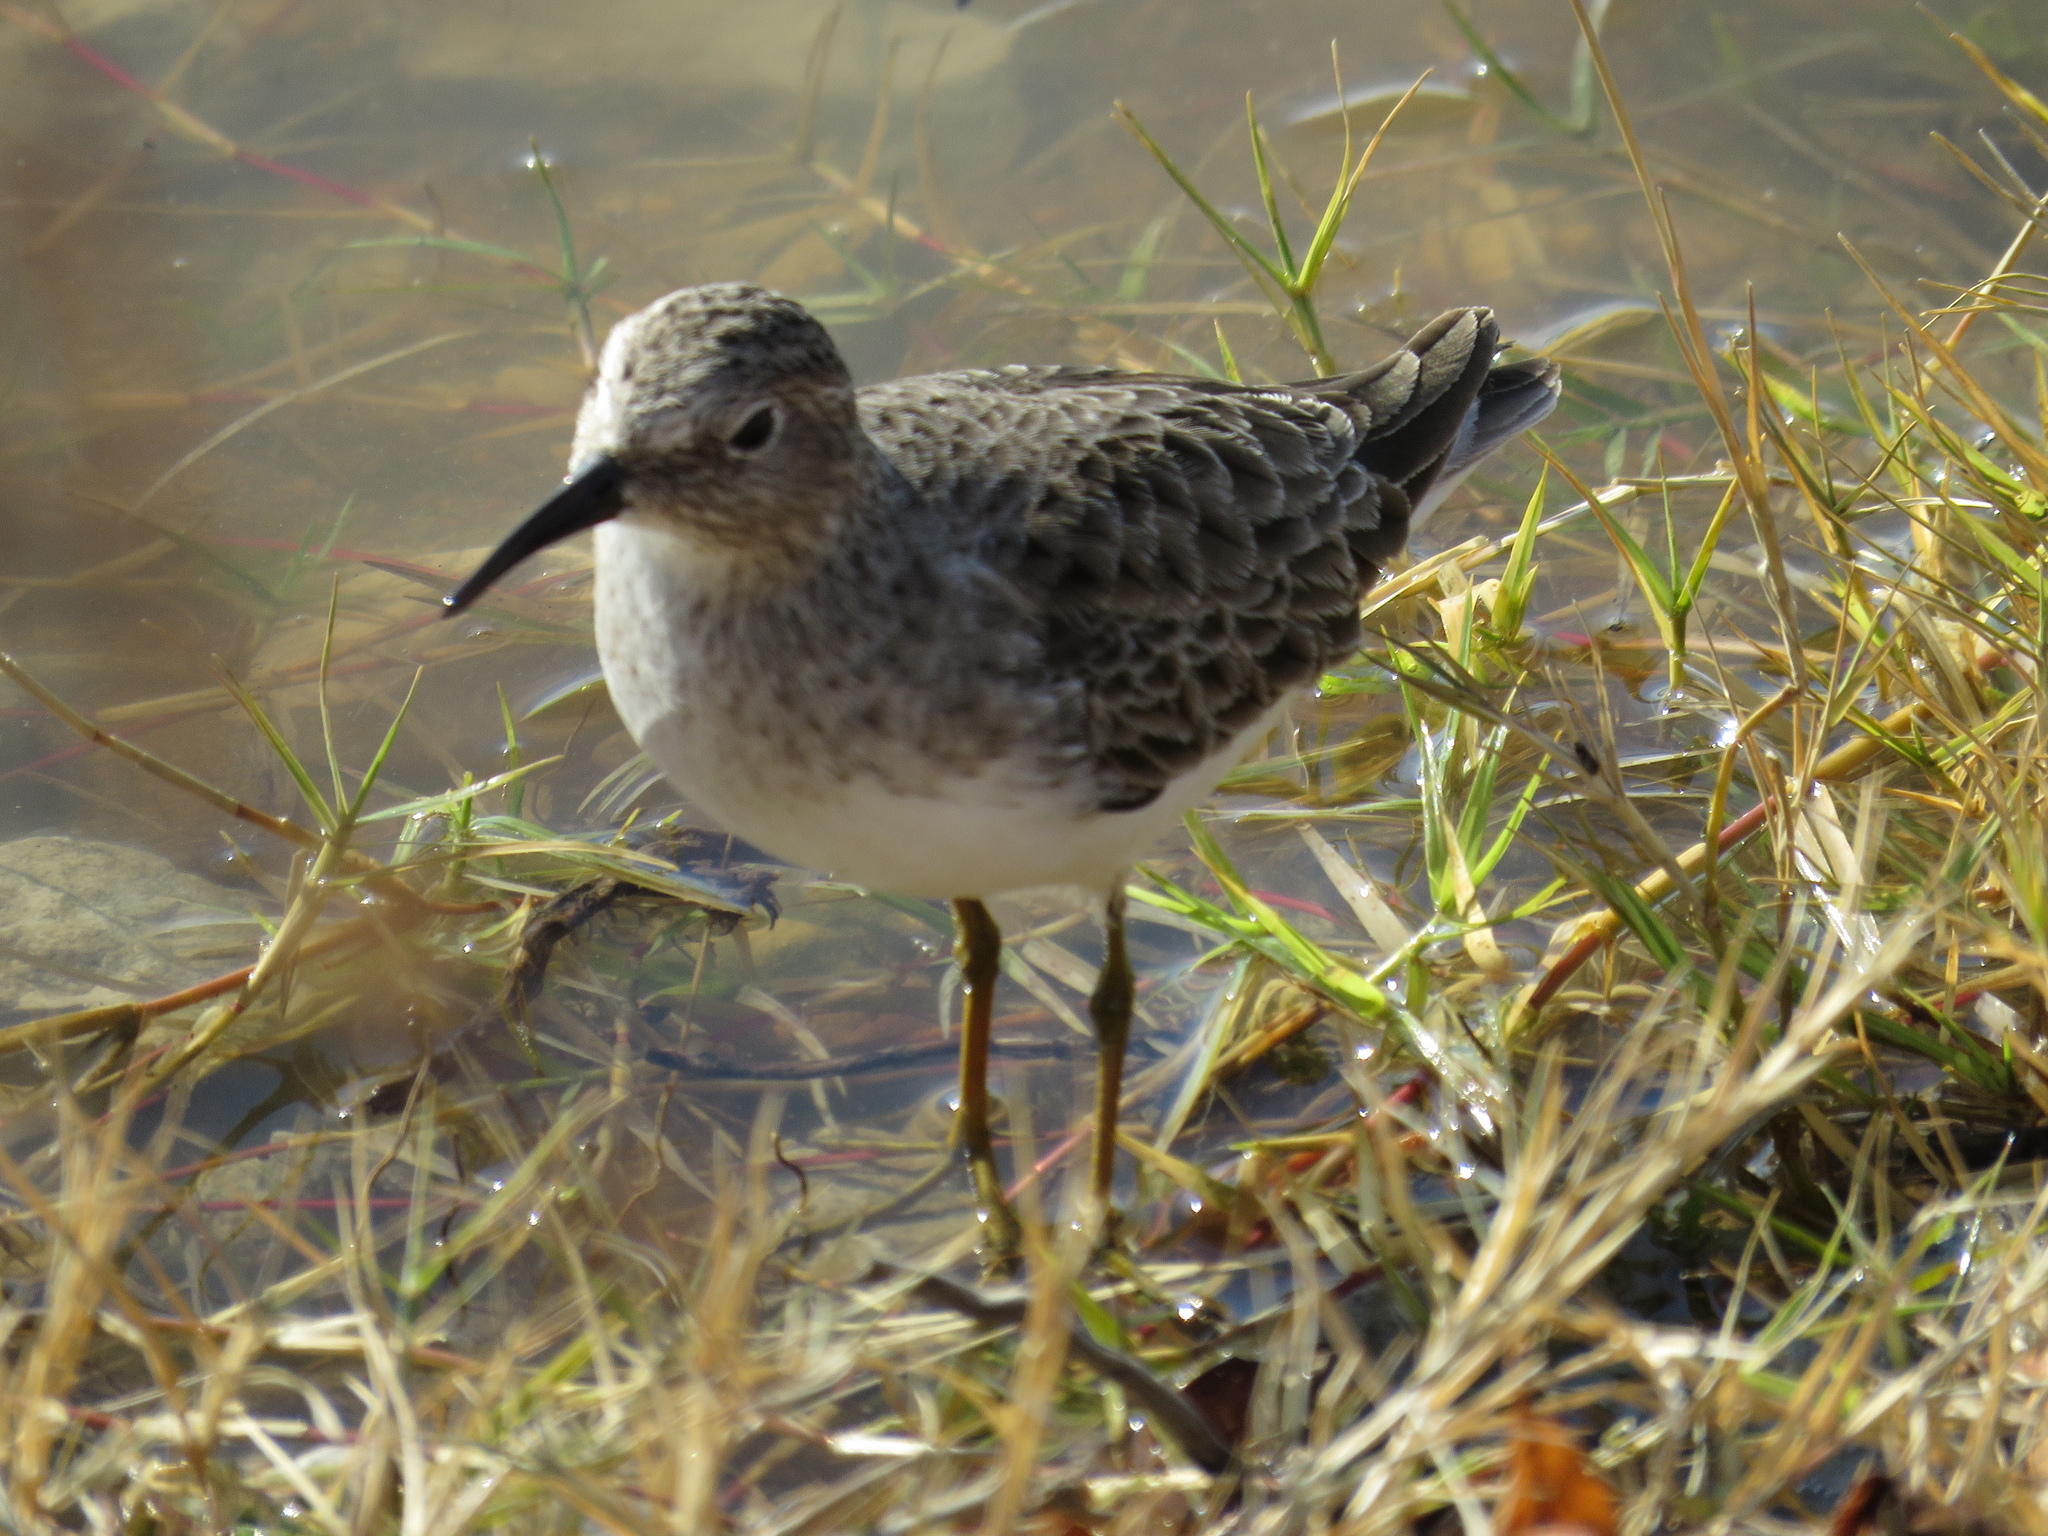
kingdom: Animalia
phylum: Chordata
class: Aves
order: Charadriiformes
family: Scolopacidae
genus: Calidris
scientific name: Calidris minutilla
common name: Least sandpiper
